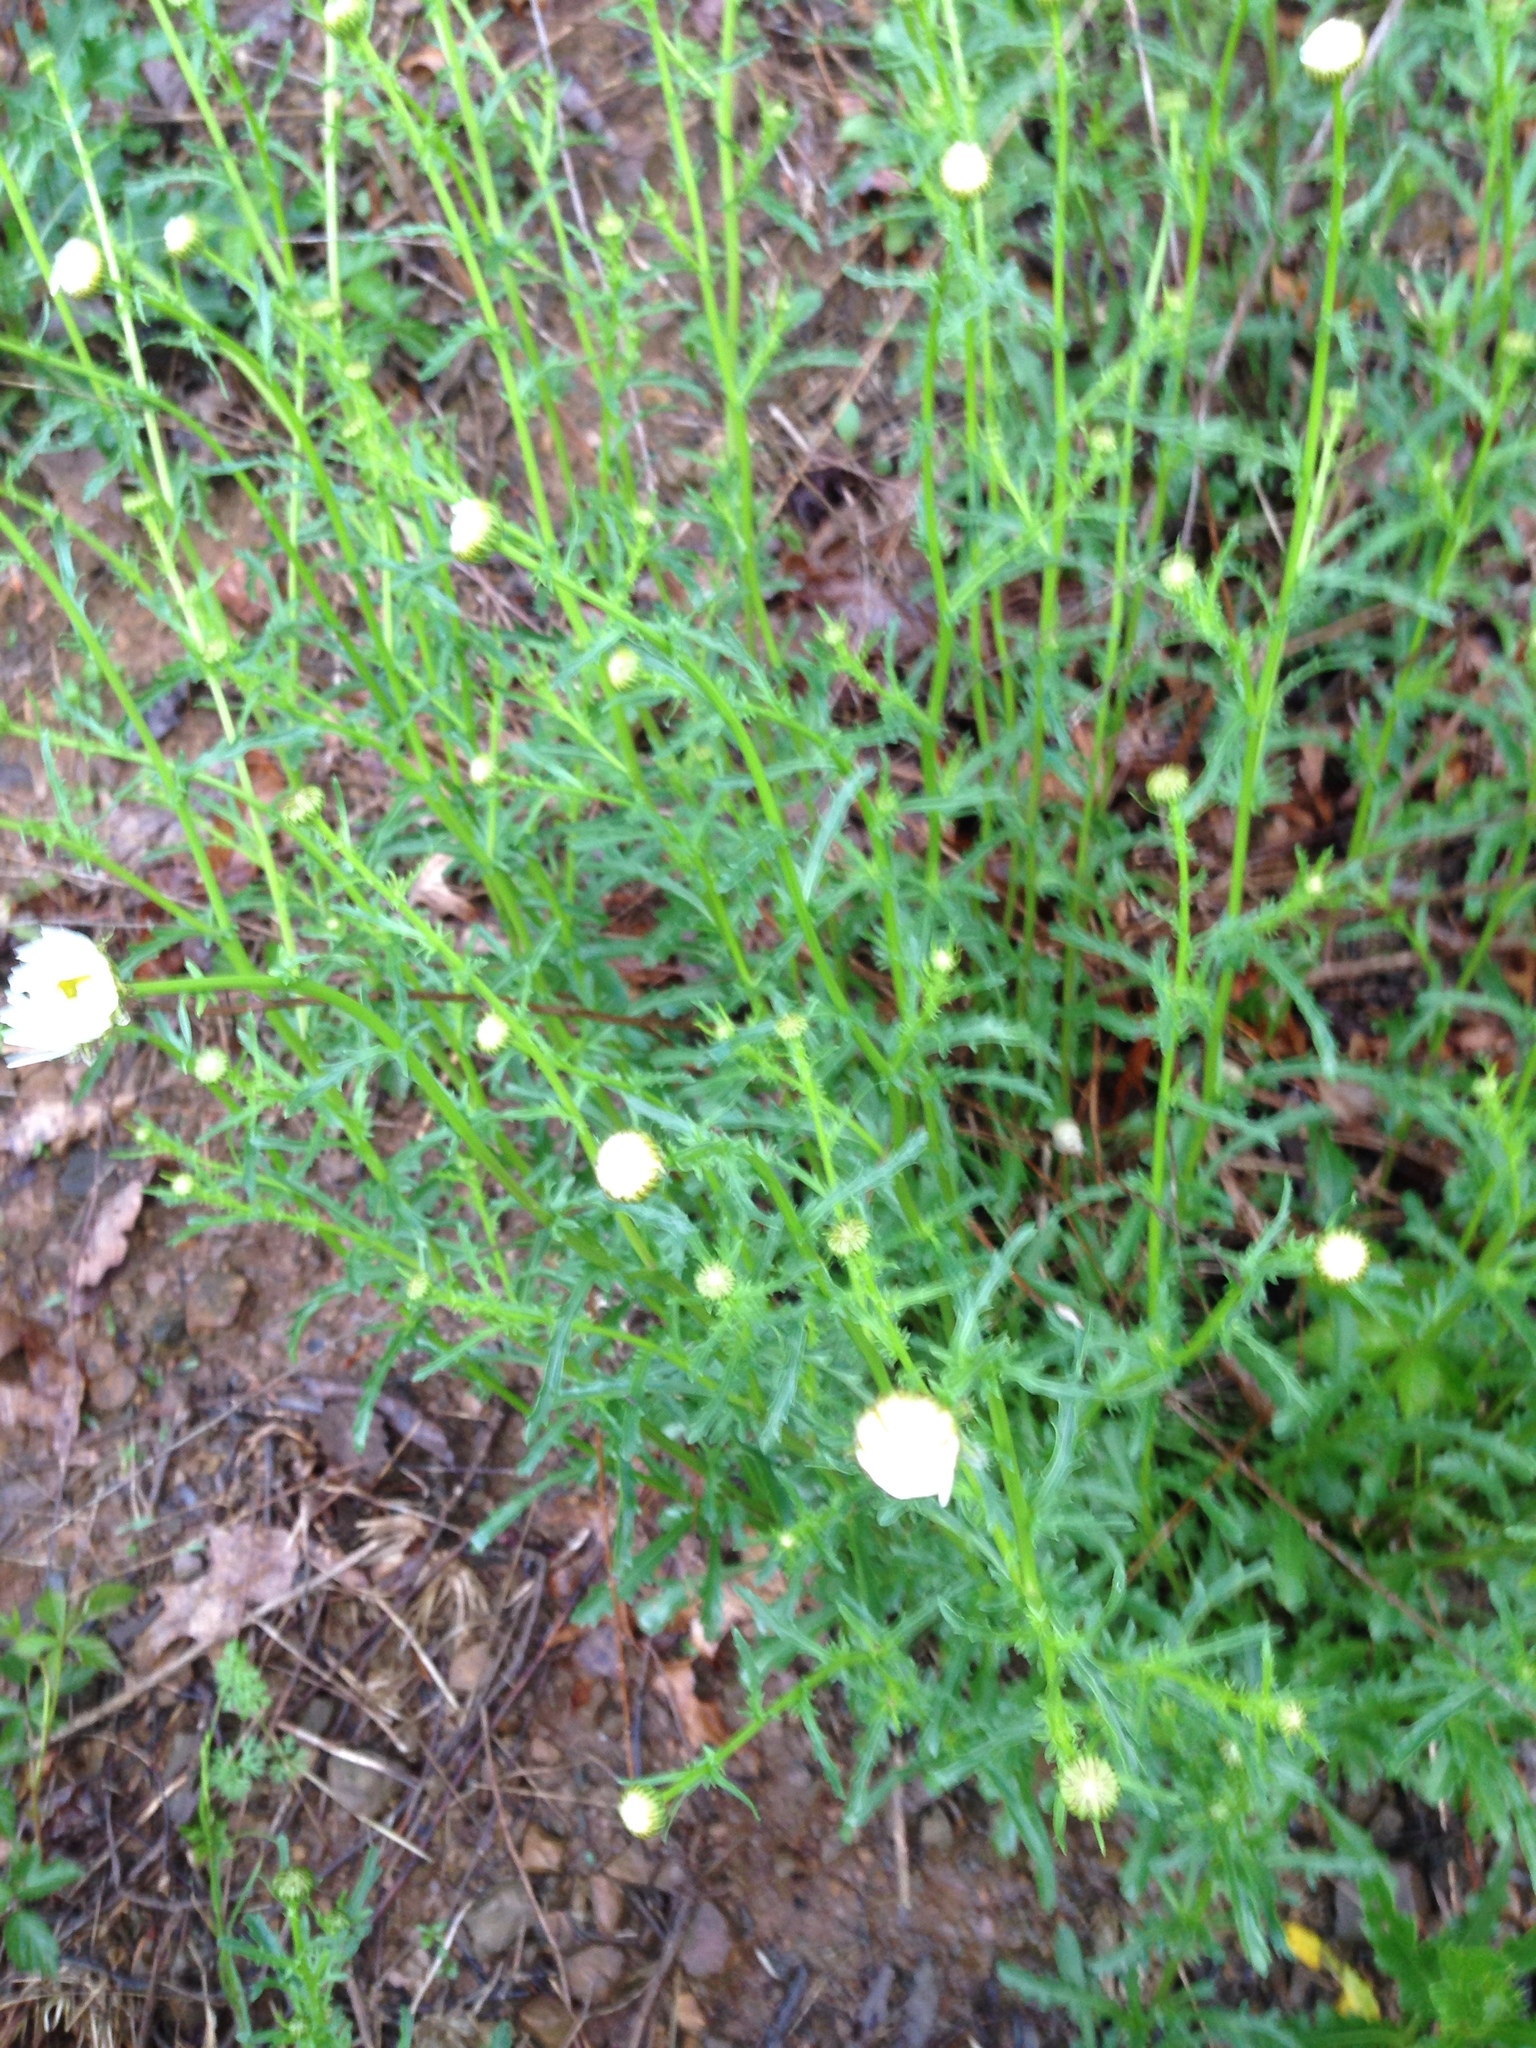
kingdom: Plantae
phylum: Tracheophyta
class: Magnoliopsida
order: Asterales
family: Asteraceae
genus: Leucanthemum
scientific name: Leucanthemum vulgare
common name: Oxeye daisy
